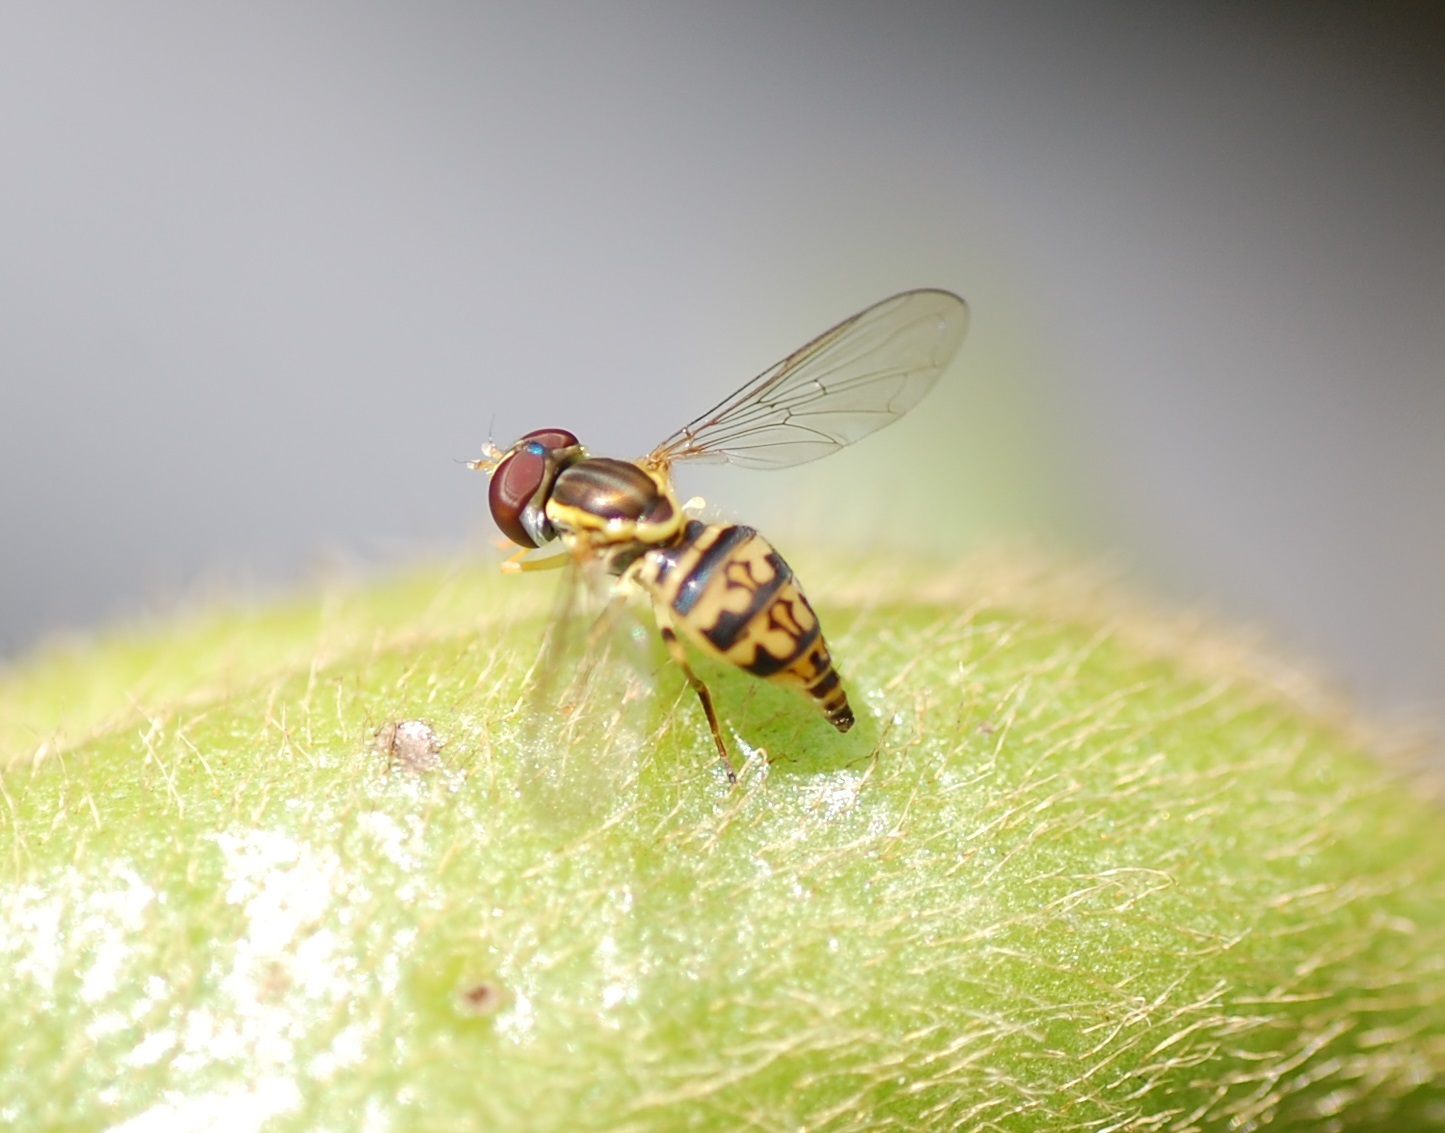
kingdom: Animalia
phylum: Arthropoda
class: Insecta
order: Diptera
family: Syrphidae
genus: Toxomerus
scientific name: Toxomerus geminatus
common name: Eastern calligrapher
